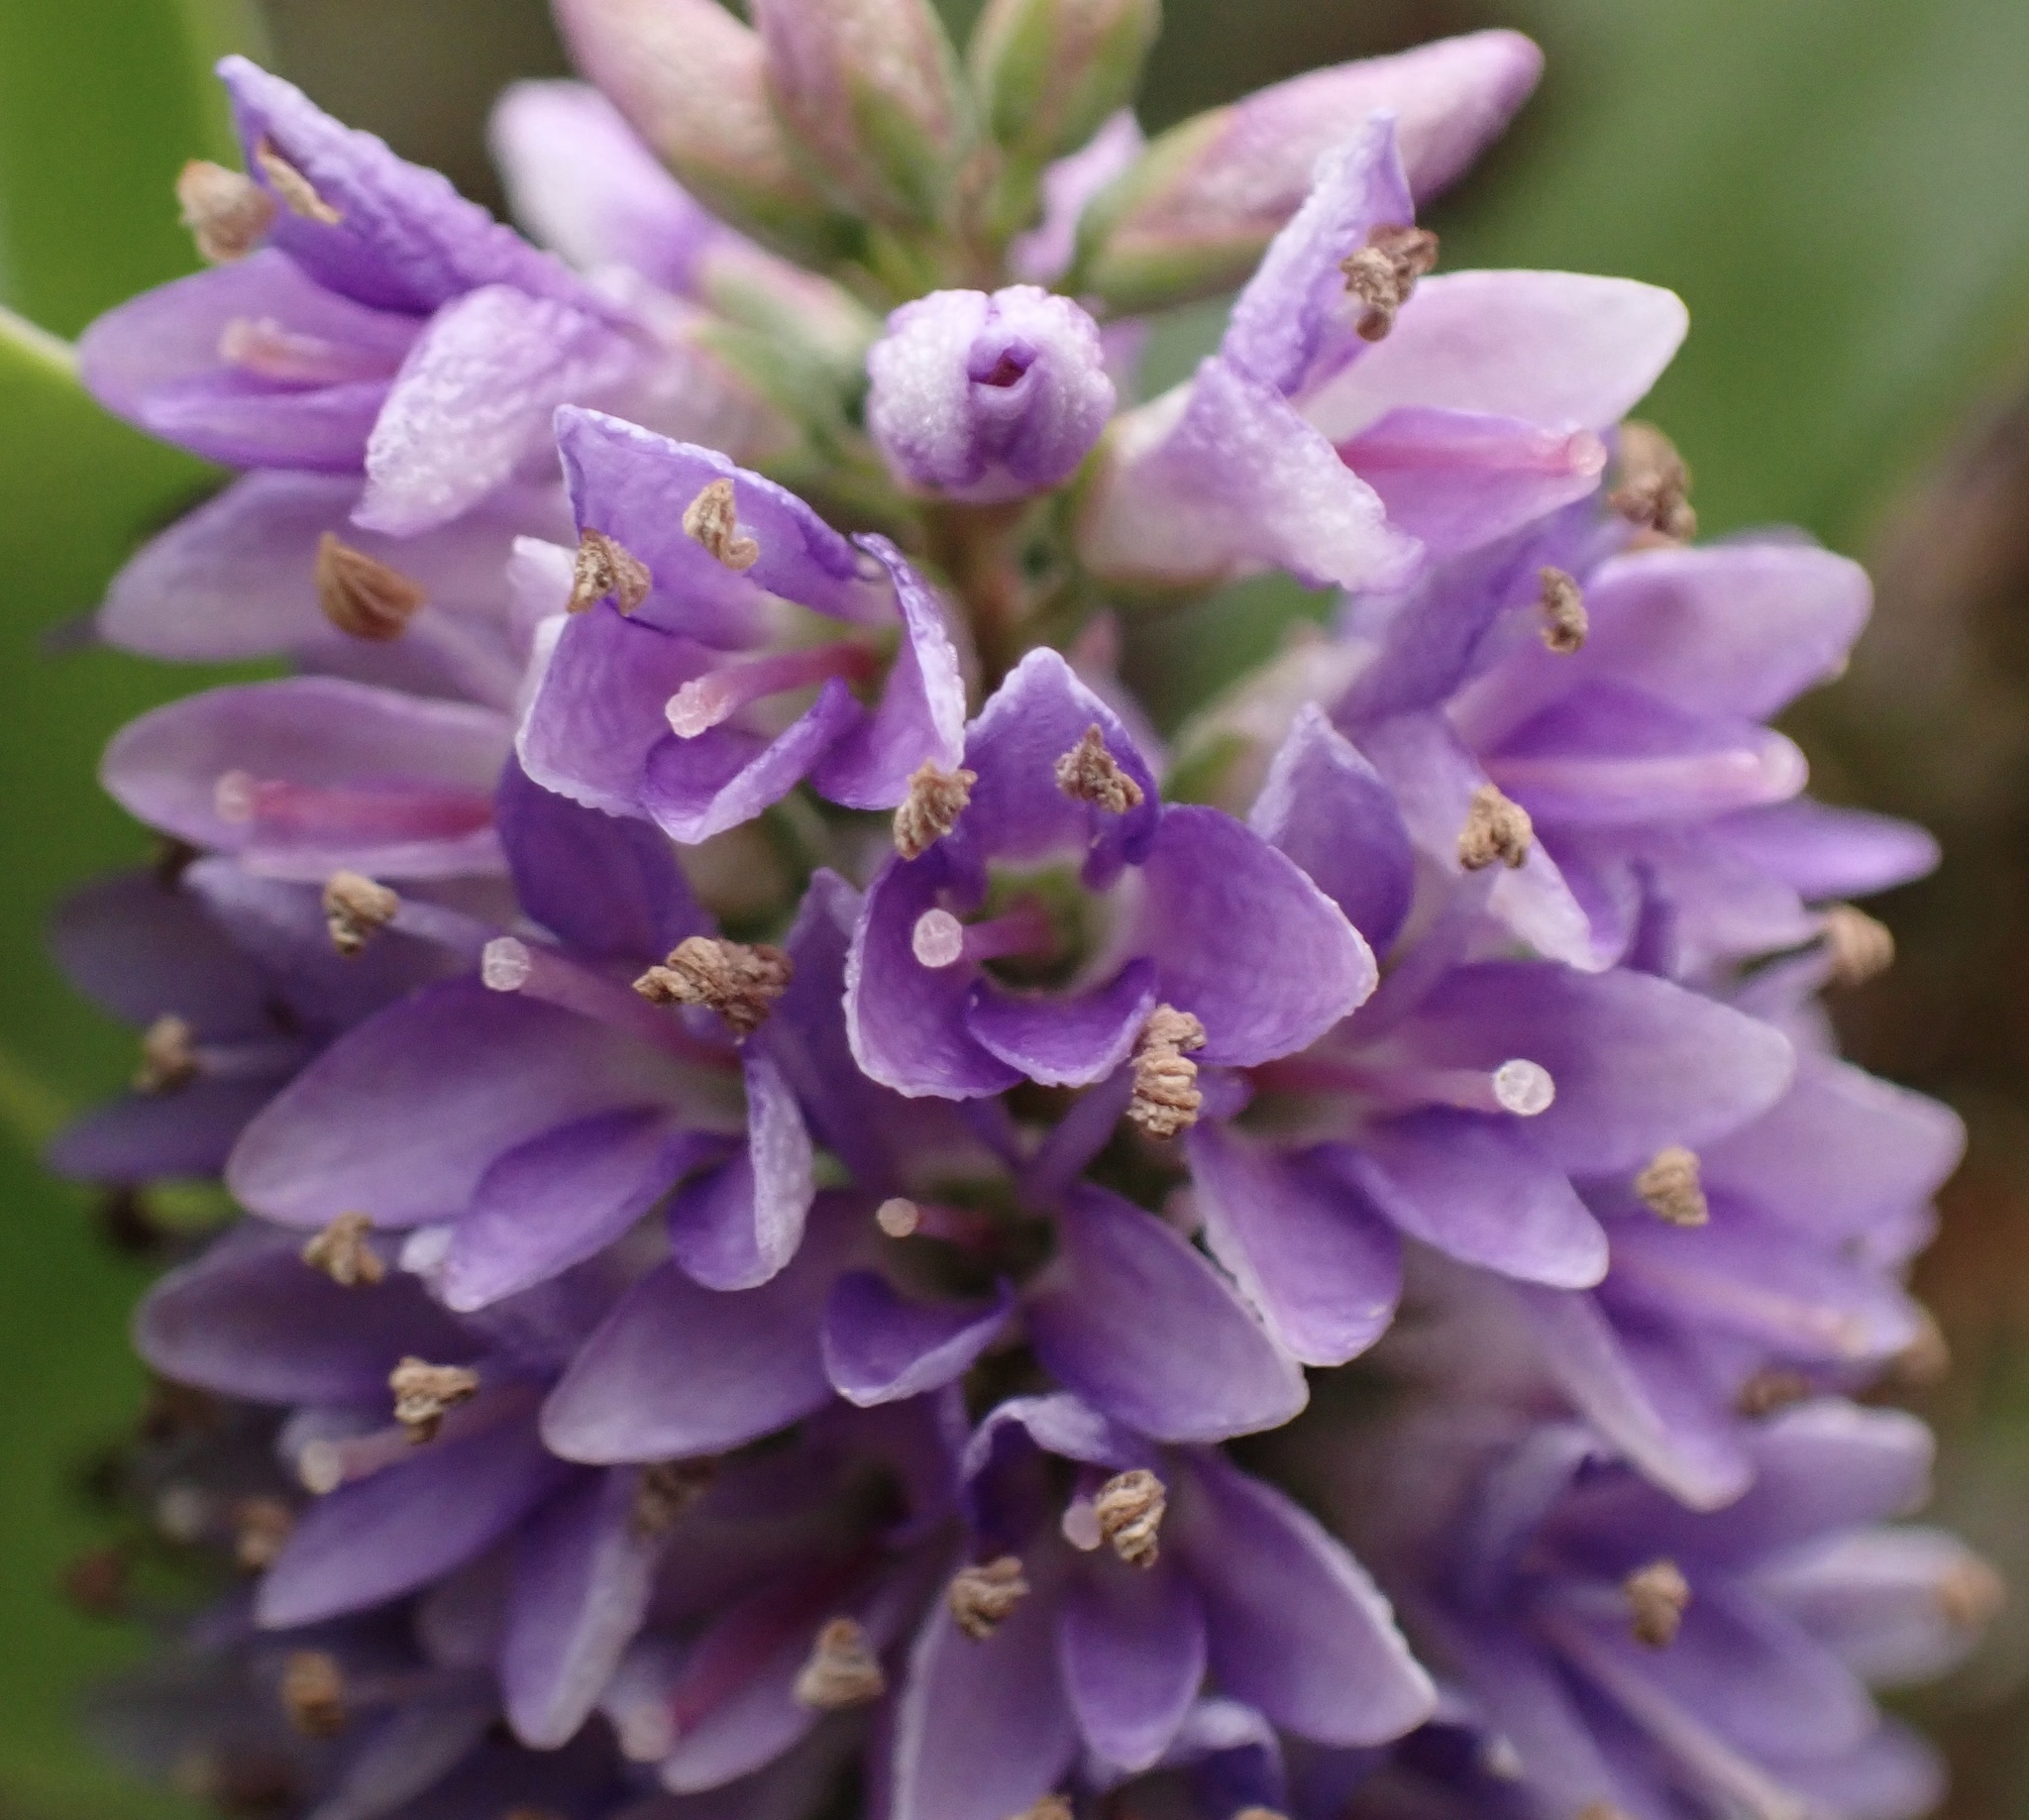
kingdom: Plantae
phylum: Tracheophyta
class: Magnoliopsida
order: Lamiales
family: Plantaginaceae
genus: Veronica
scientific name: Veronica franciscana
